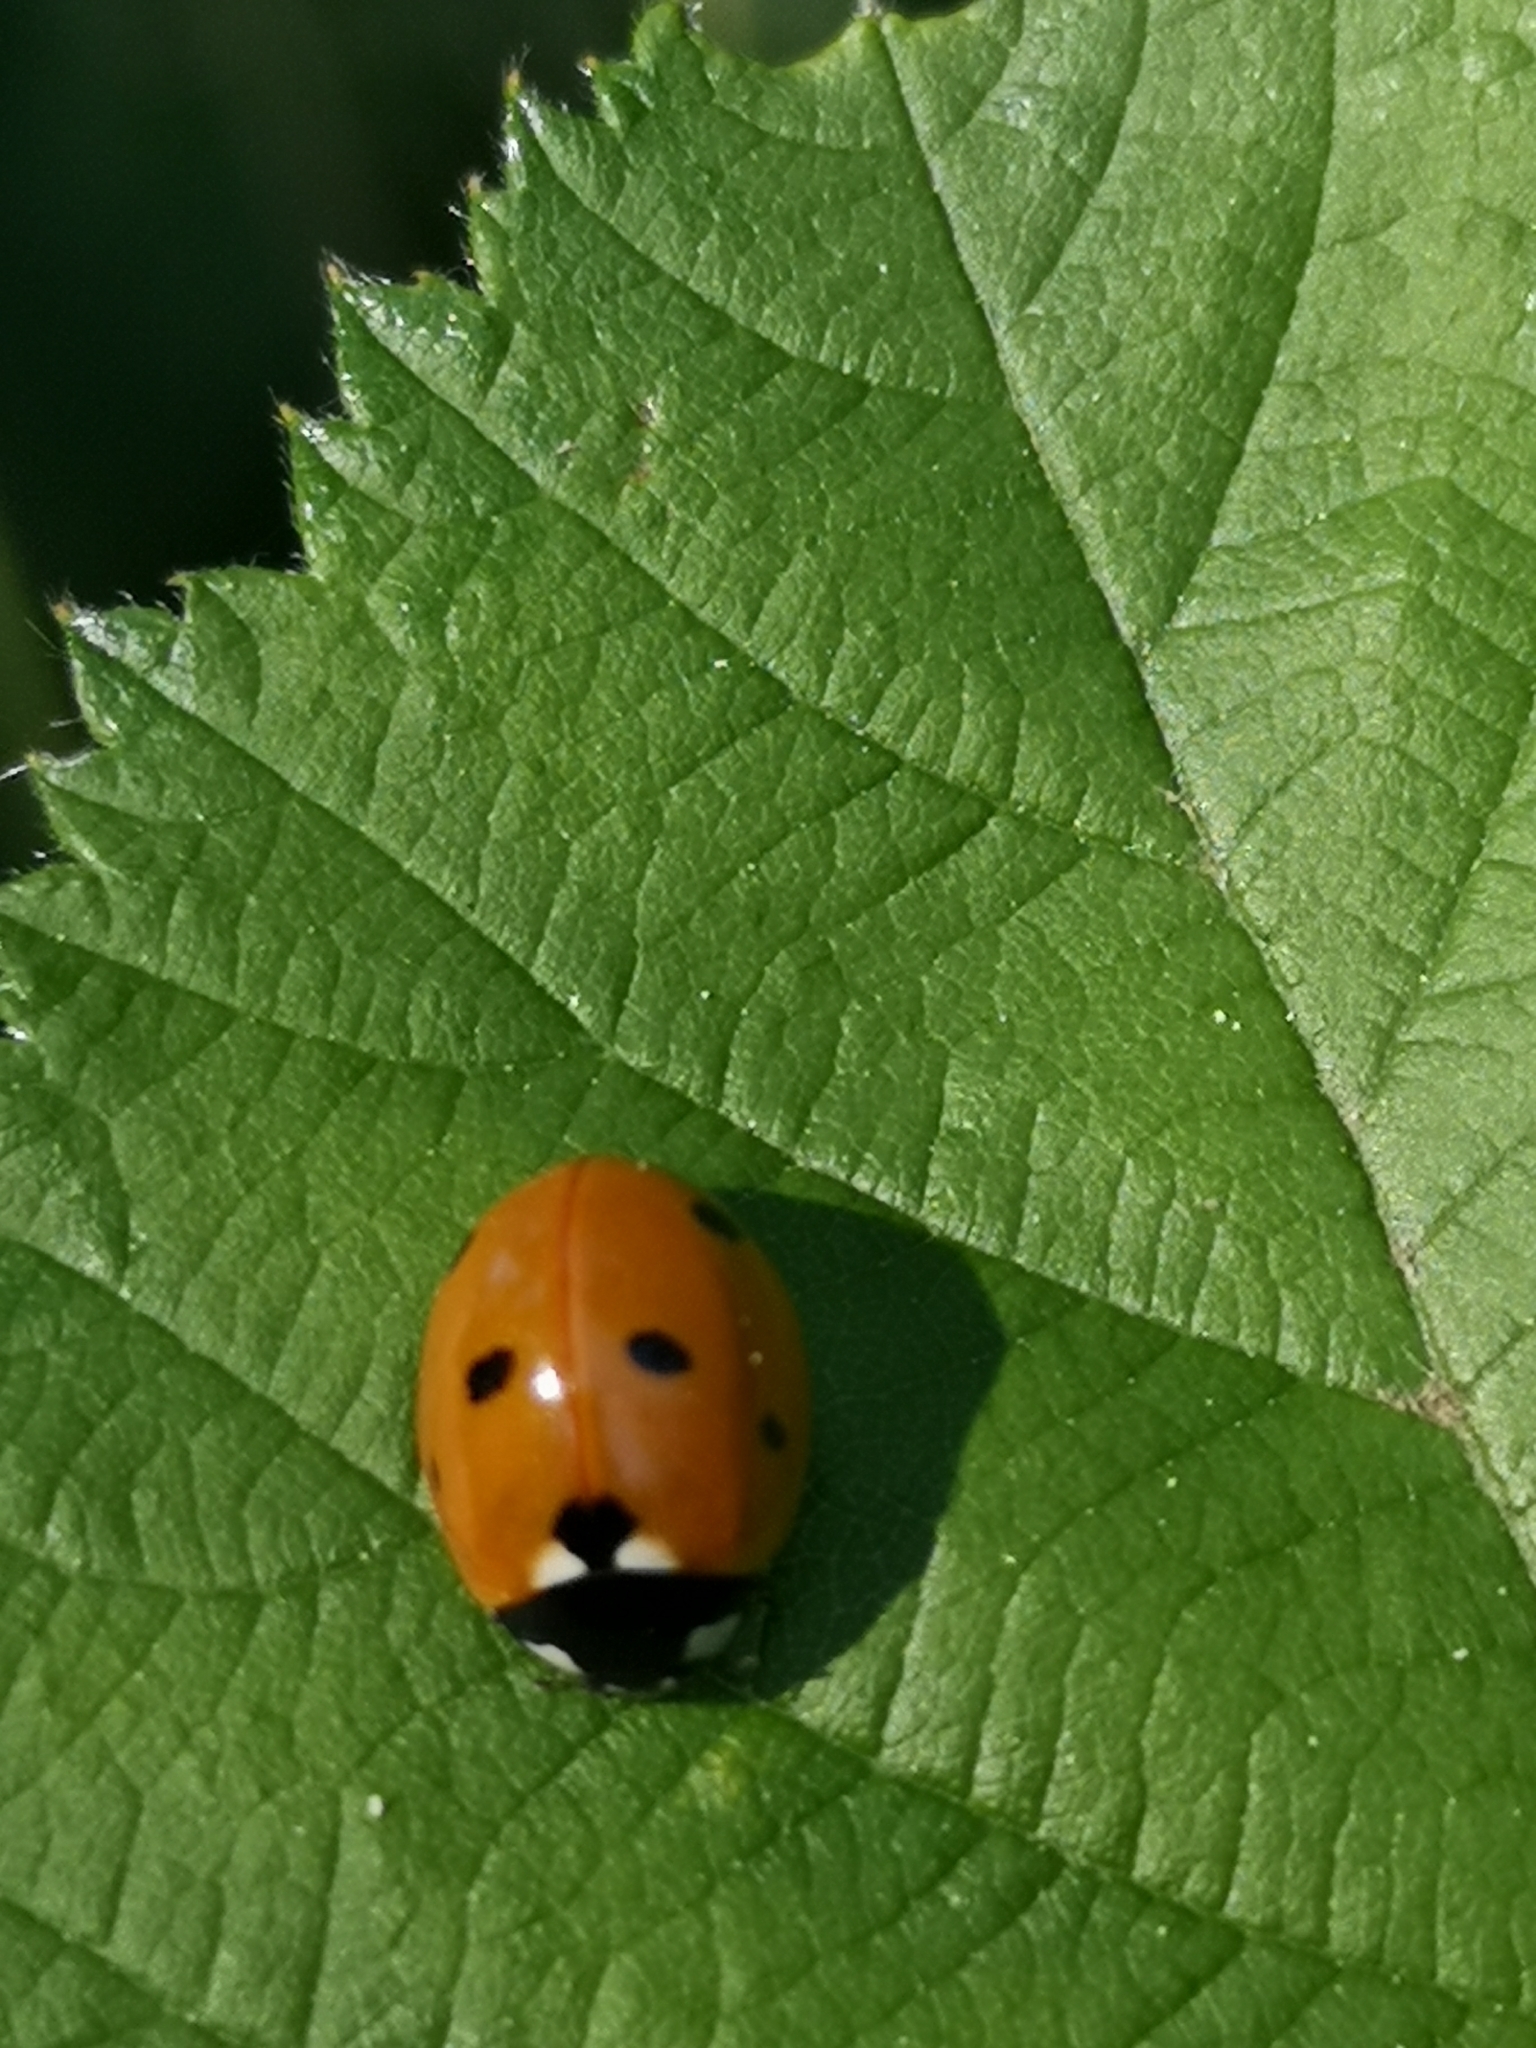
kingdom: Animalia
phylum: Arthropoda
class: Insecta
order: Coleoptera
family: Coccinellidae
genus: Coccinella
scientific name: Coccinella septempunctata
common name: Sevenspotted lady beetle
